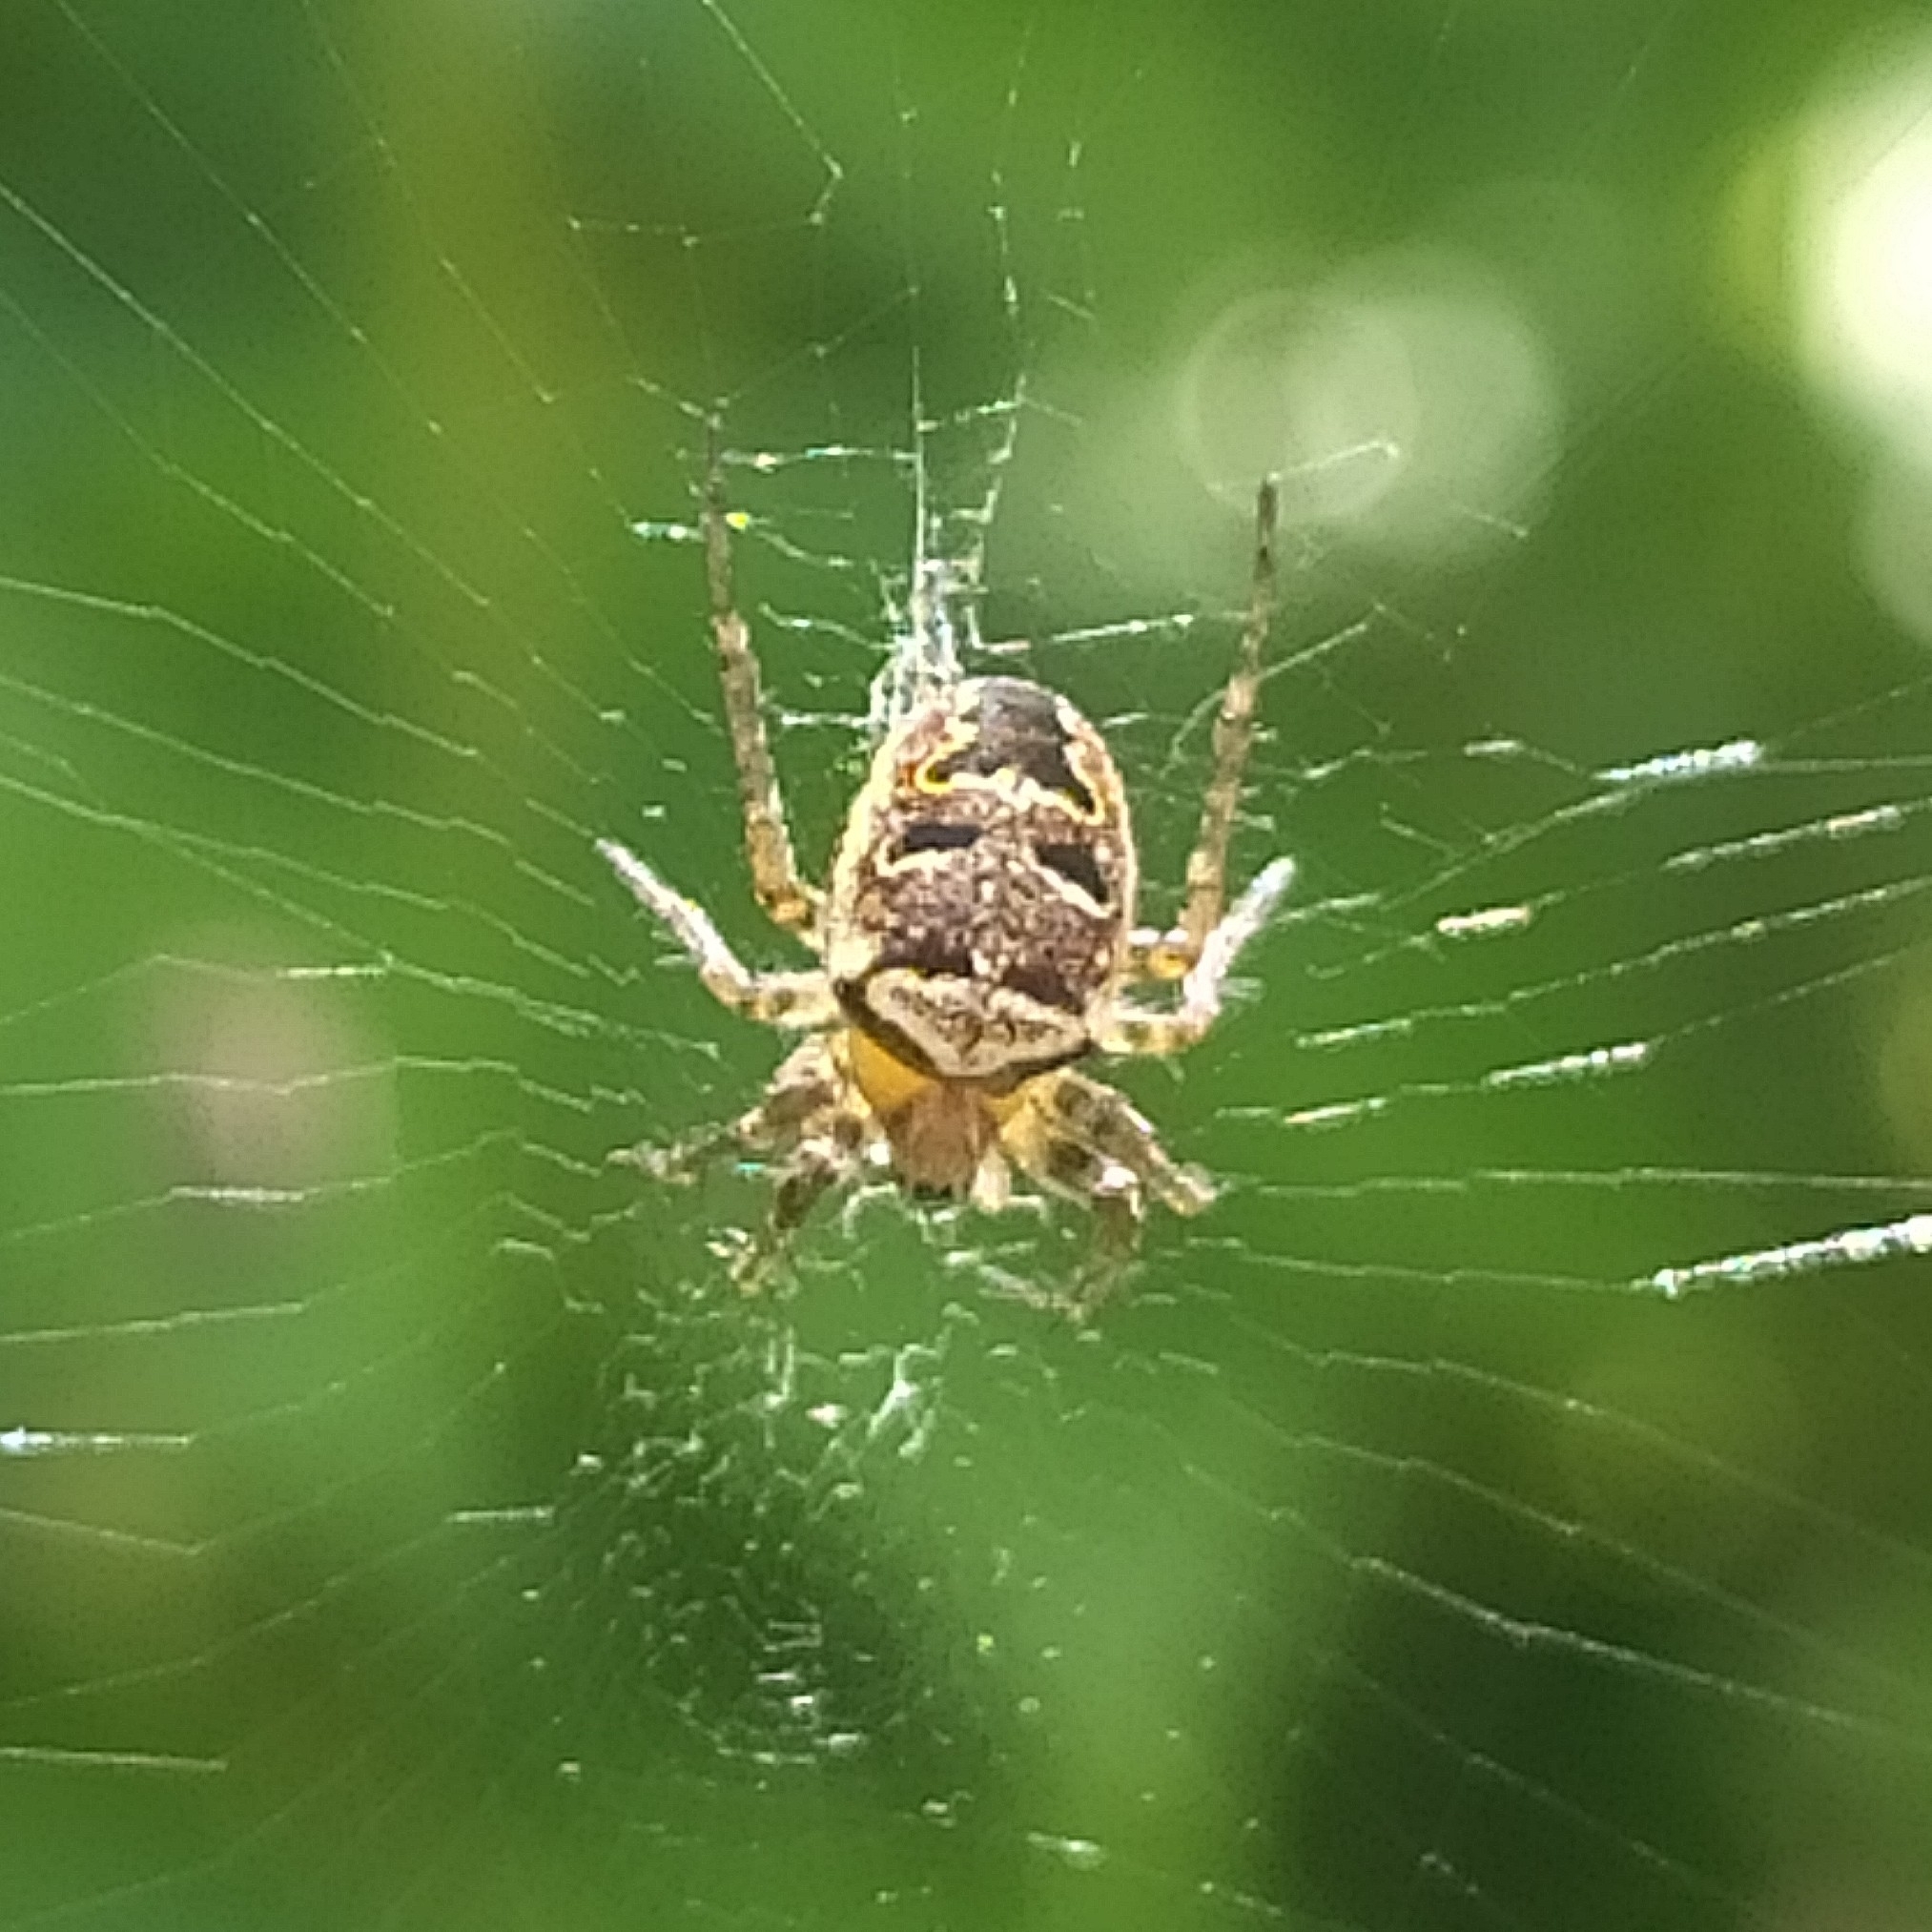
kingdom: Animalia
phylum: Arthropoda
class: Arachnida
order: Araneae
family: Araneidae
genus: Zilla
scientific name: Zilla diodia
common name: Zilla diodia
